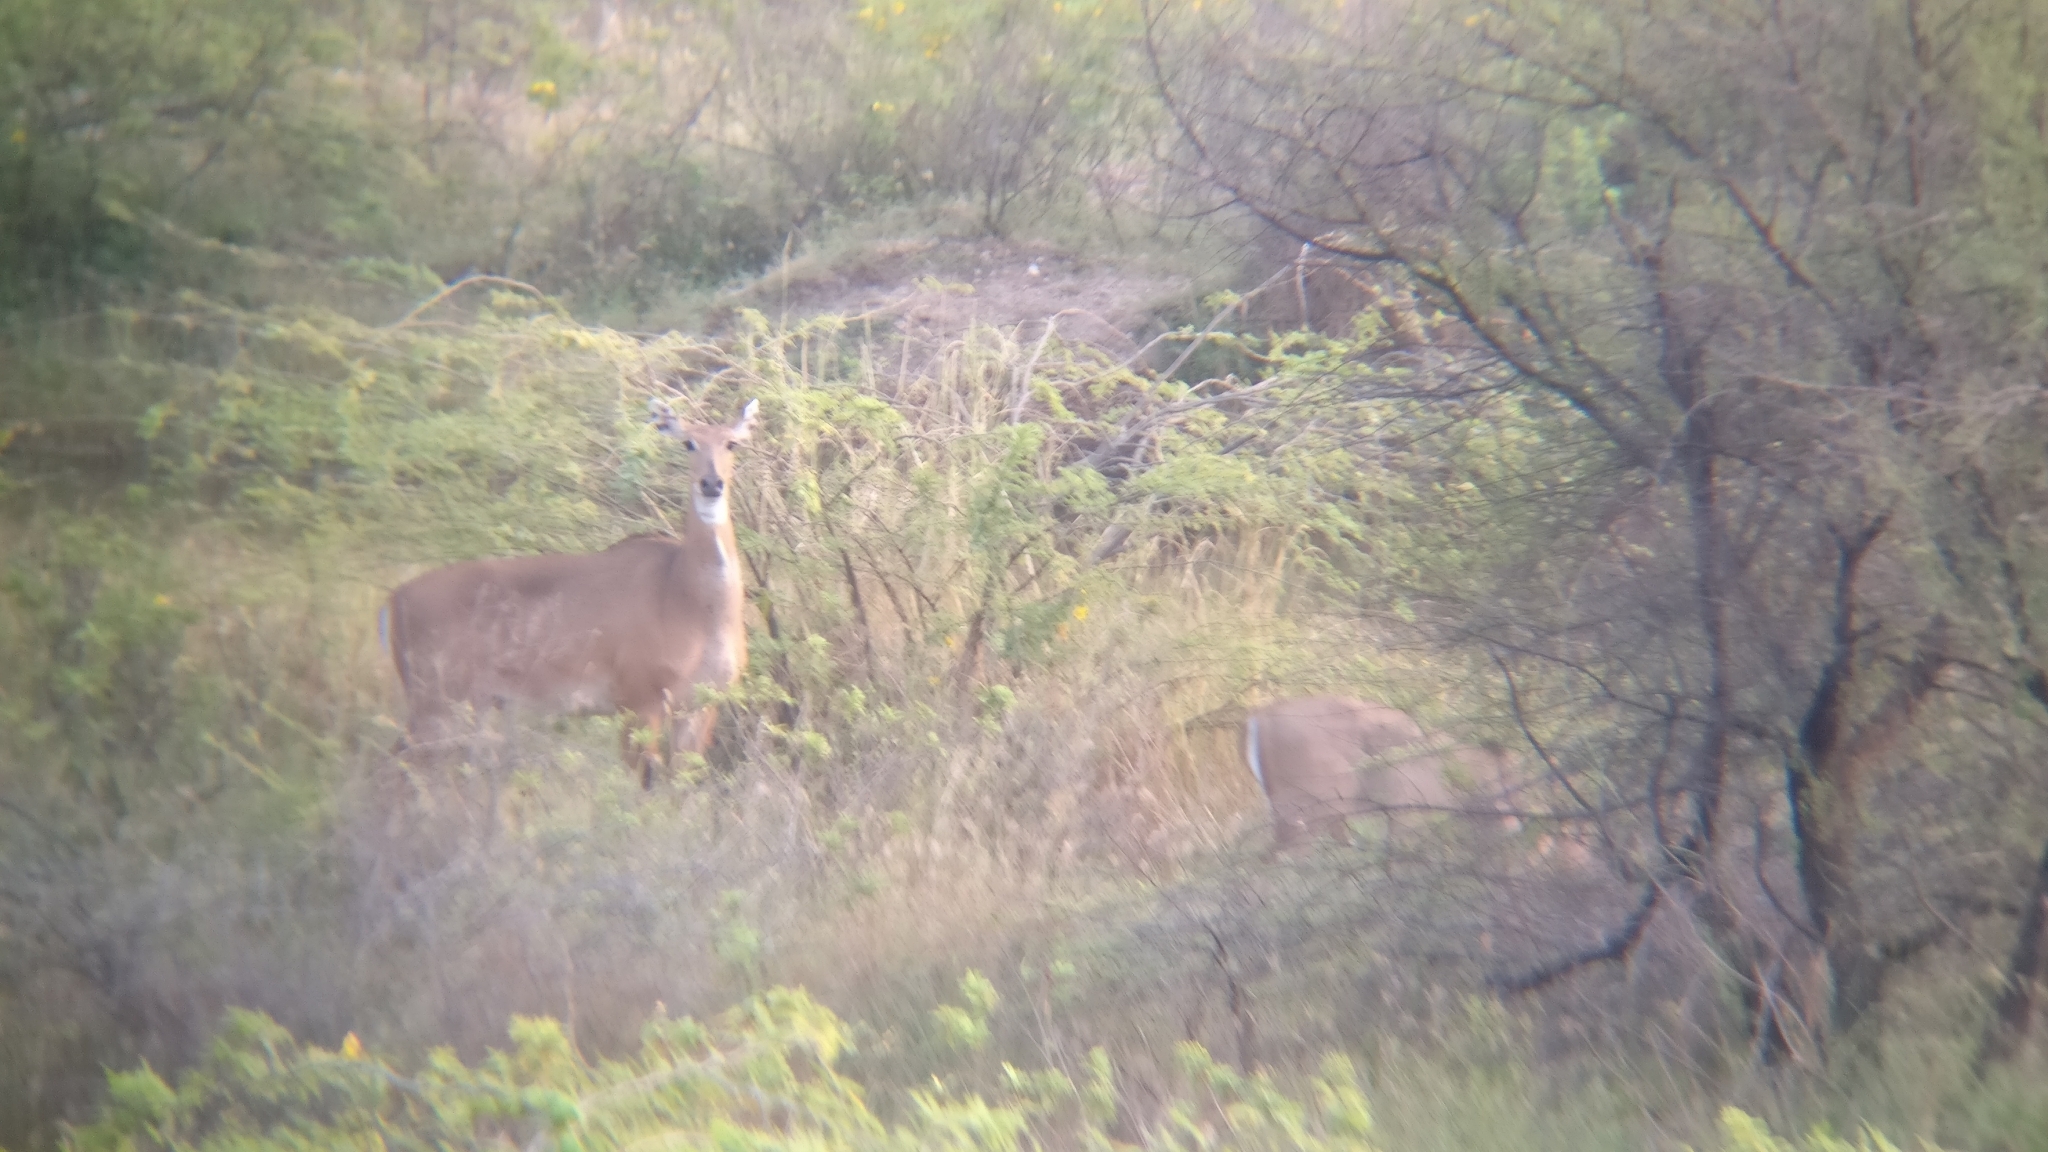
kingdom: Animalia
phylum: Chordata
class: Mammalia
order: Artiodactyla
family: Bovidae
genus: Boselaphus
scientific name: Boselaphus tragocamelus
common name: Nilgai
